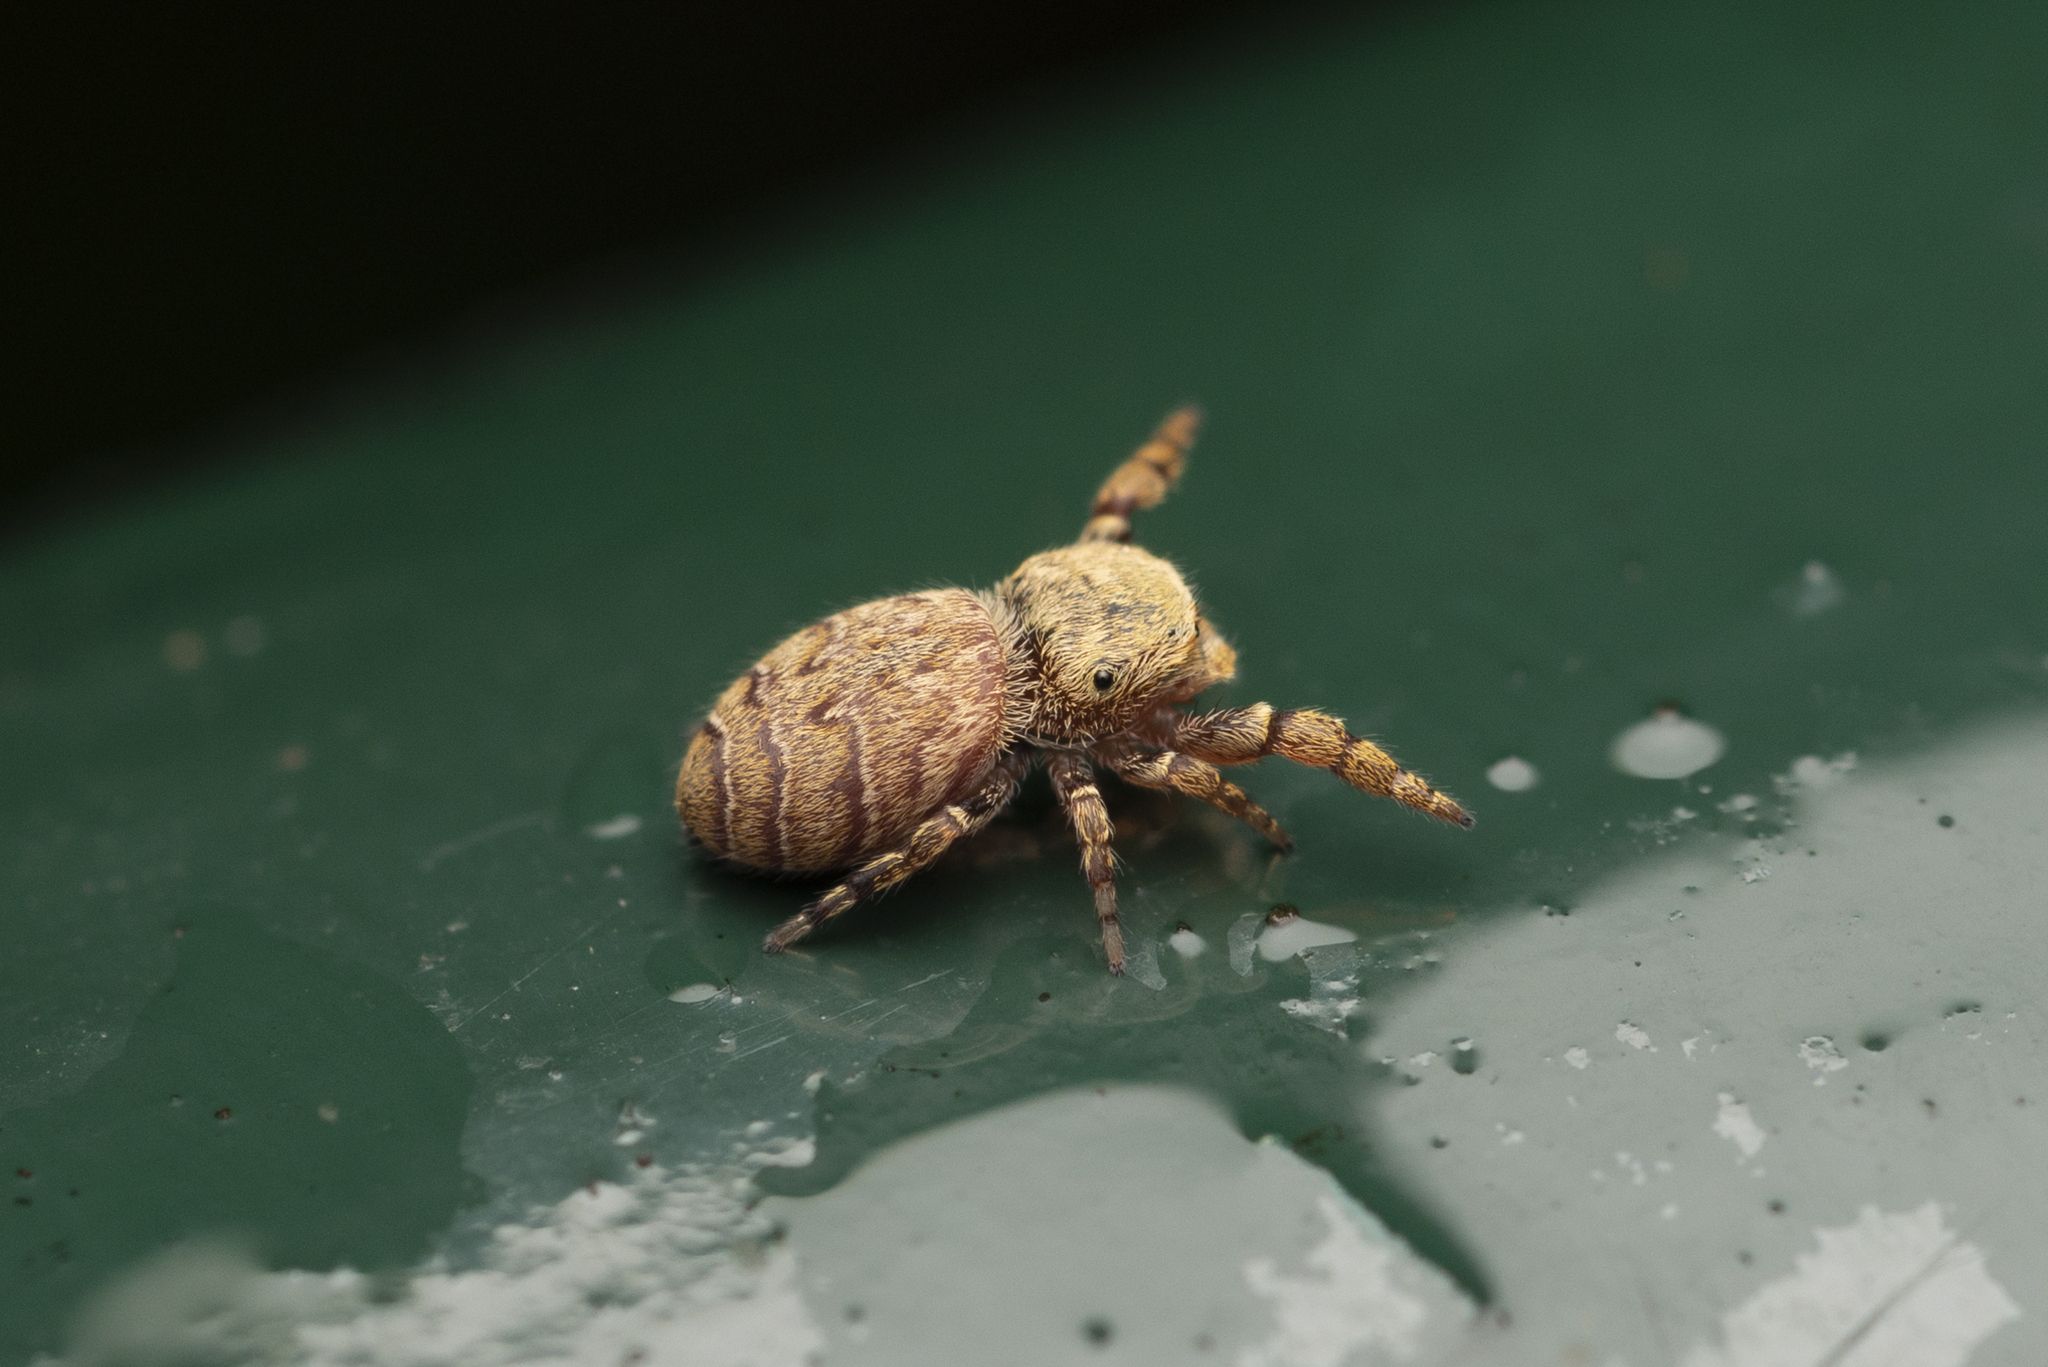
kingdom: Animalia
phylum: Arthropoda
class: Arachnida
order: Araneae
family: Salticidae
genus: Rhene
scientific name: Rhene flavicomans
